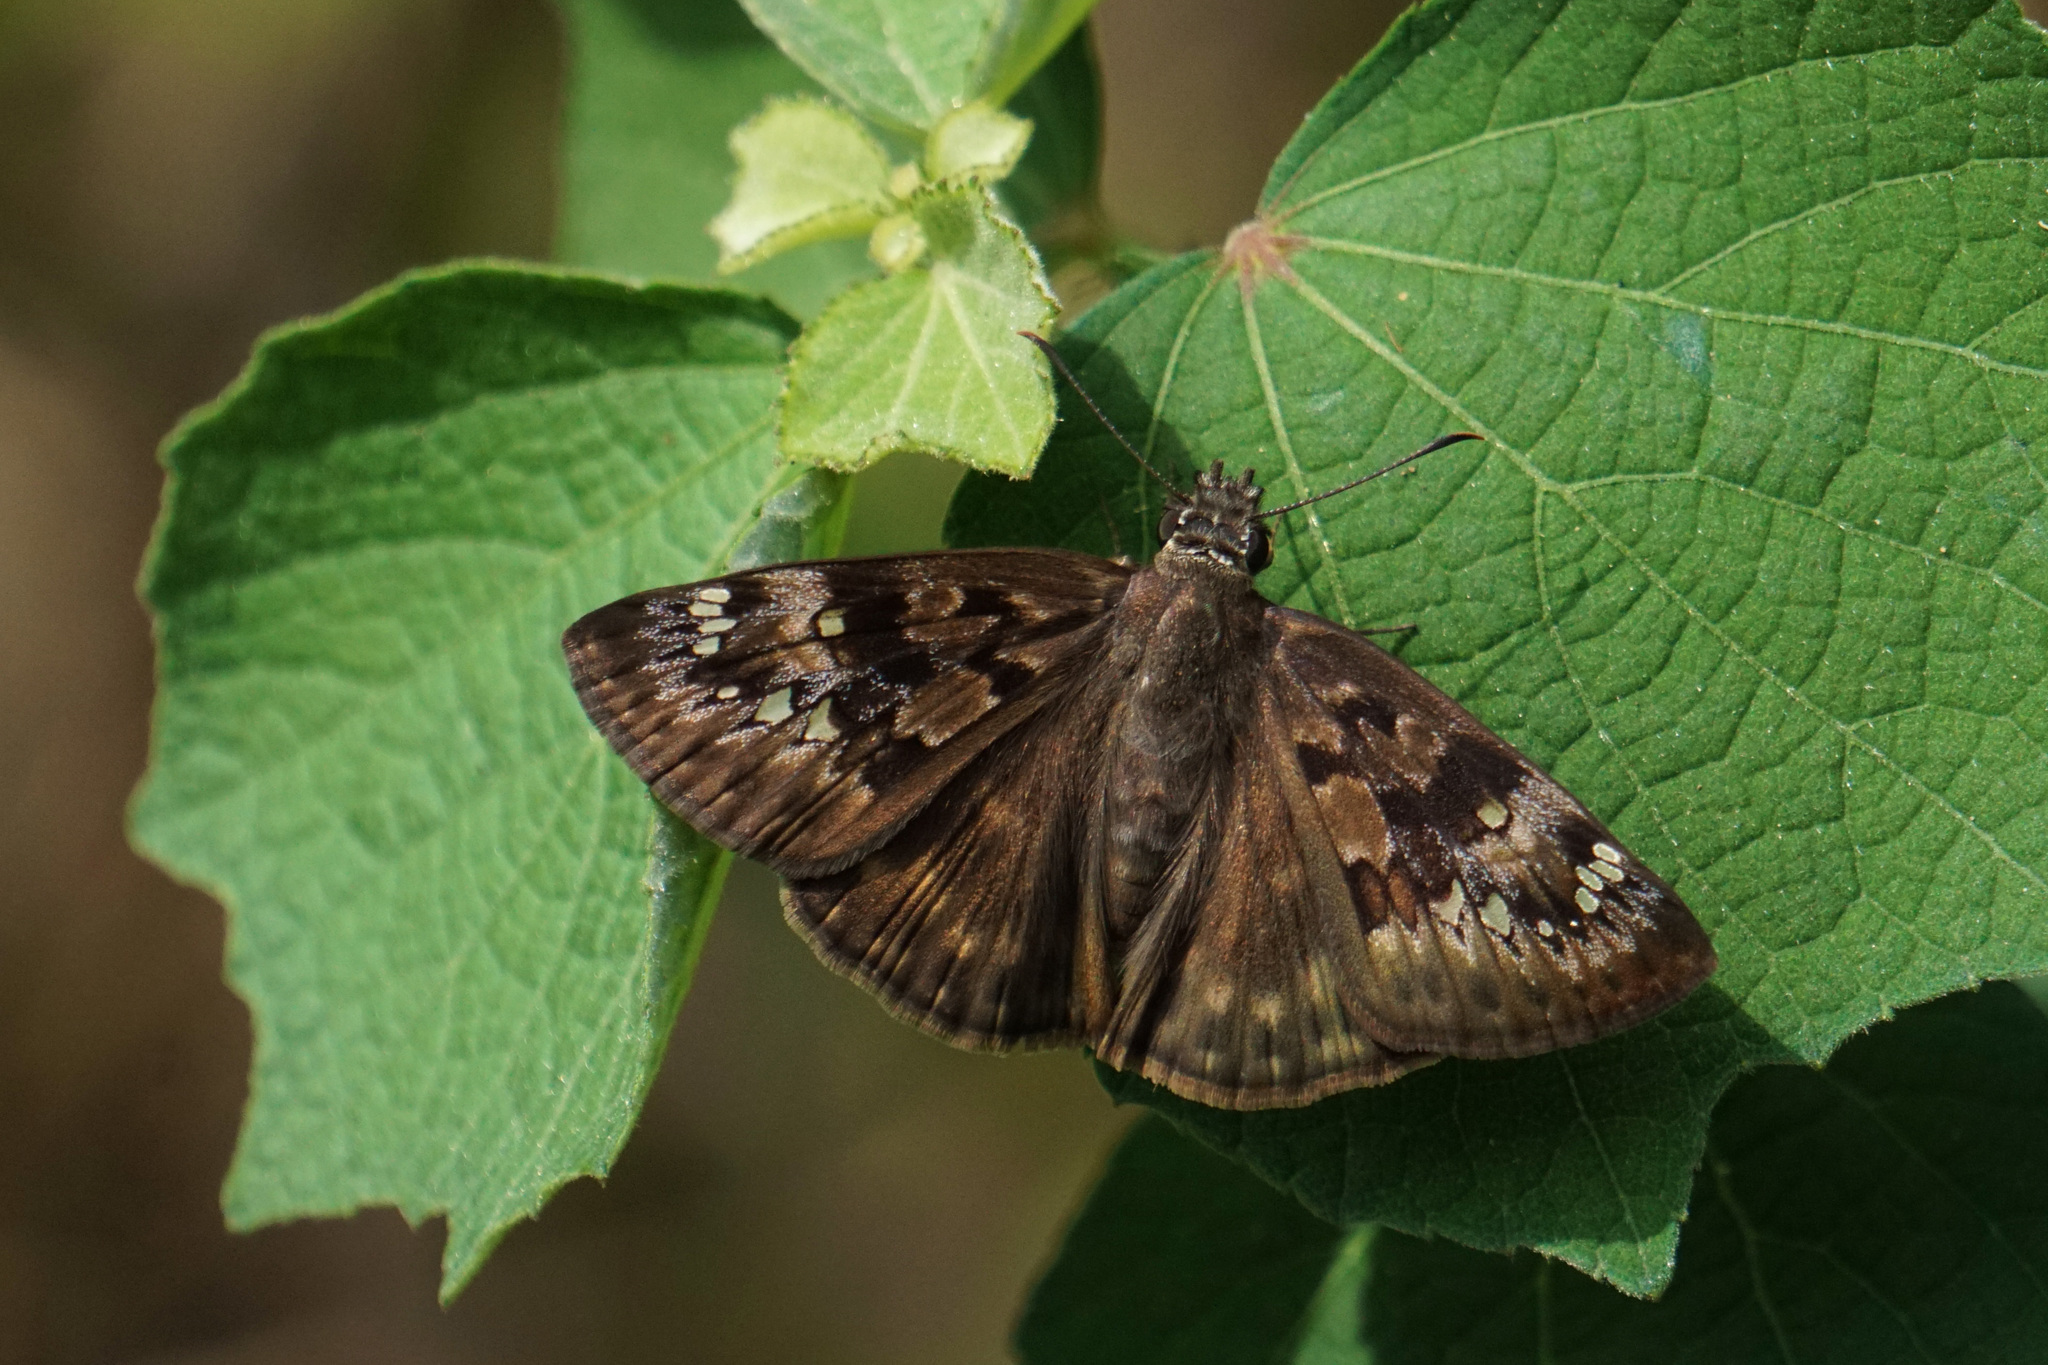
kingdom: Animalia
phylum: Arthropoda
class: Insecta
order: Lepidoptera
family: Hesperiidae
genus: Erynnis
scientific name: Erynnis horatius
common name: Horace's duskywing
